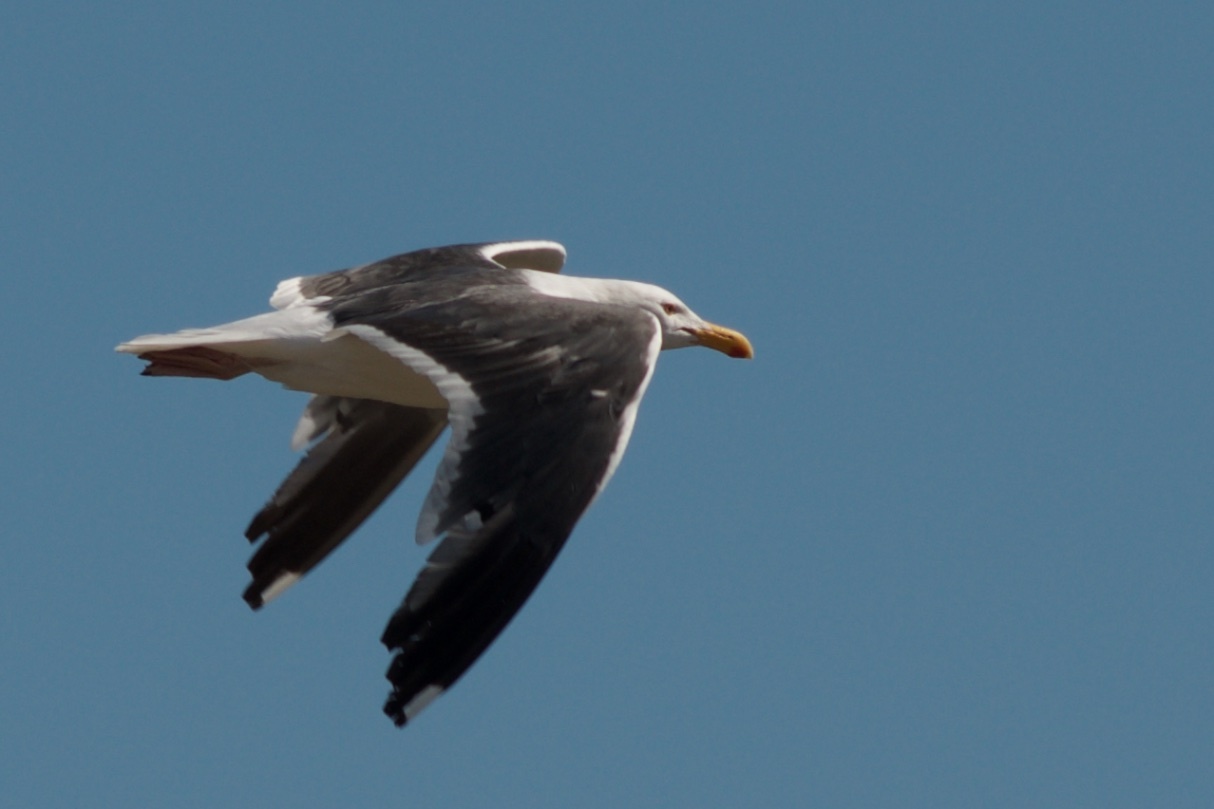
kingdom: Animalia
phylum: Chordata
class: Aves
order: Charadriiformes
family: Laridae
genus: Larus
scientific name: Larus occidentalis
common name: Western gull
